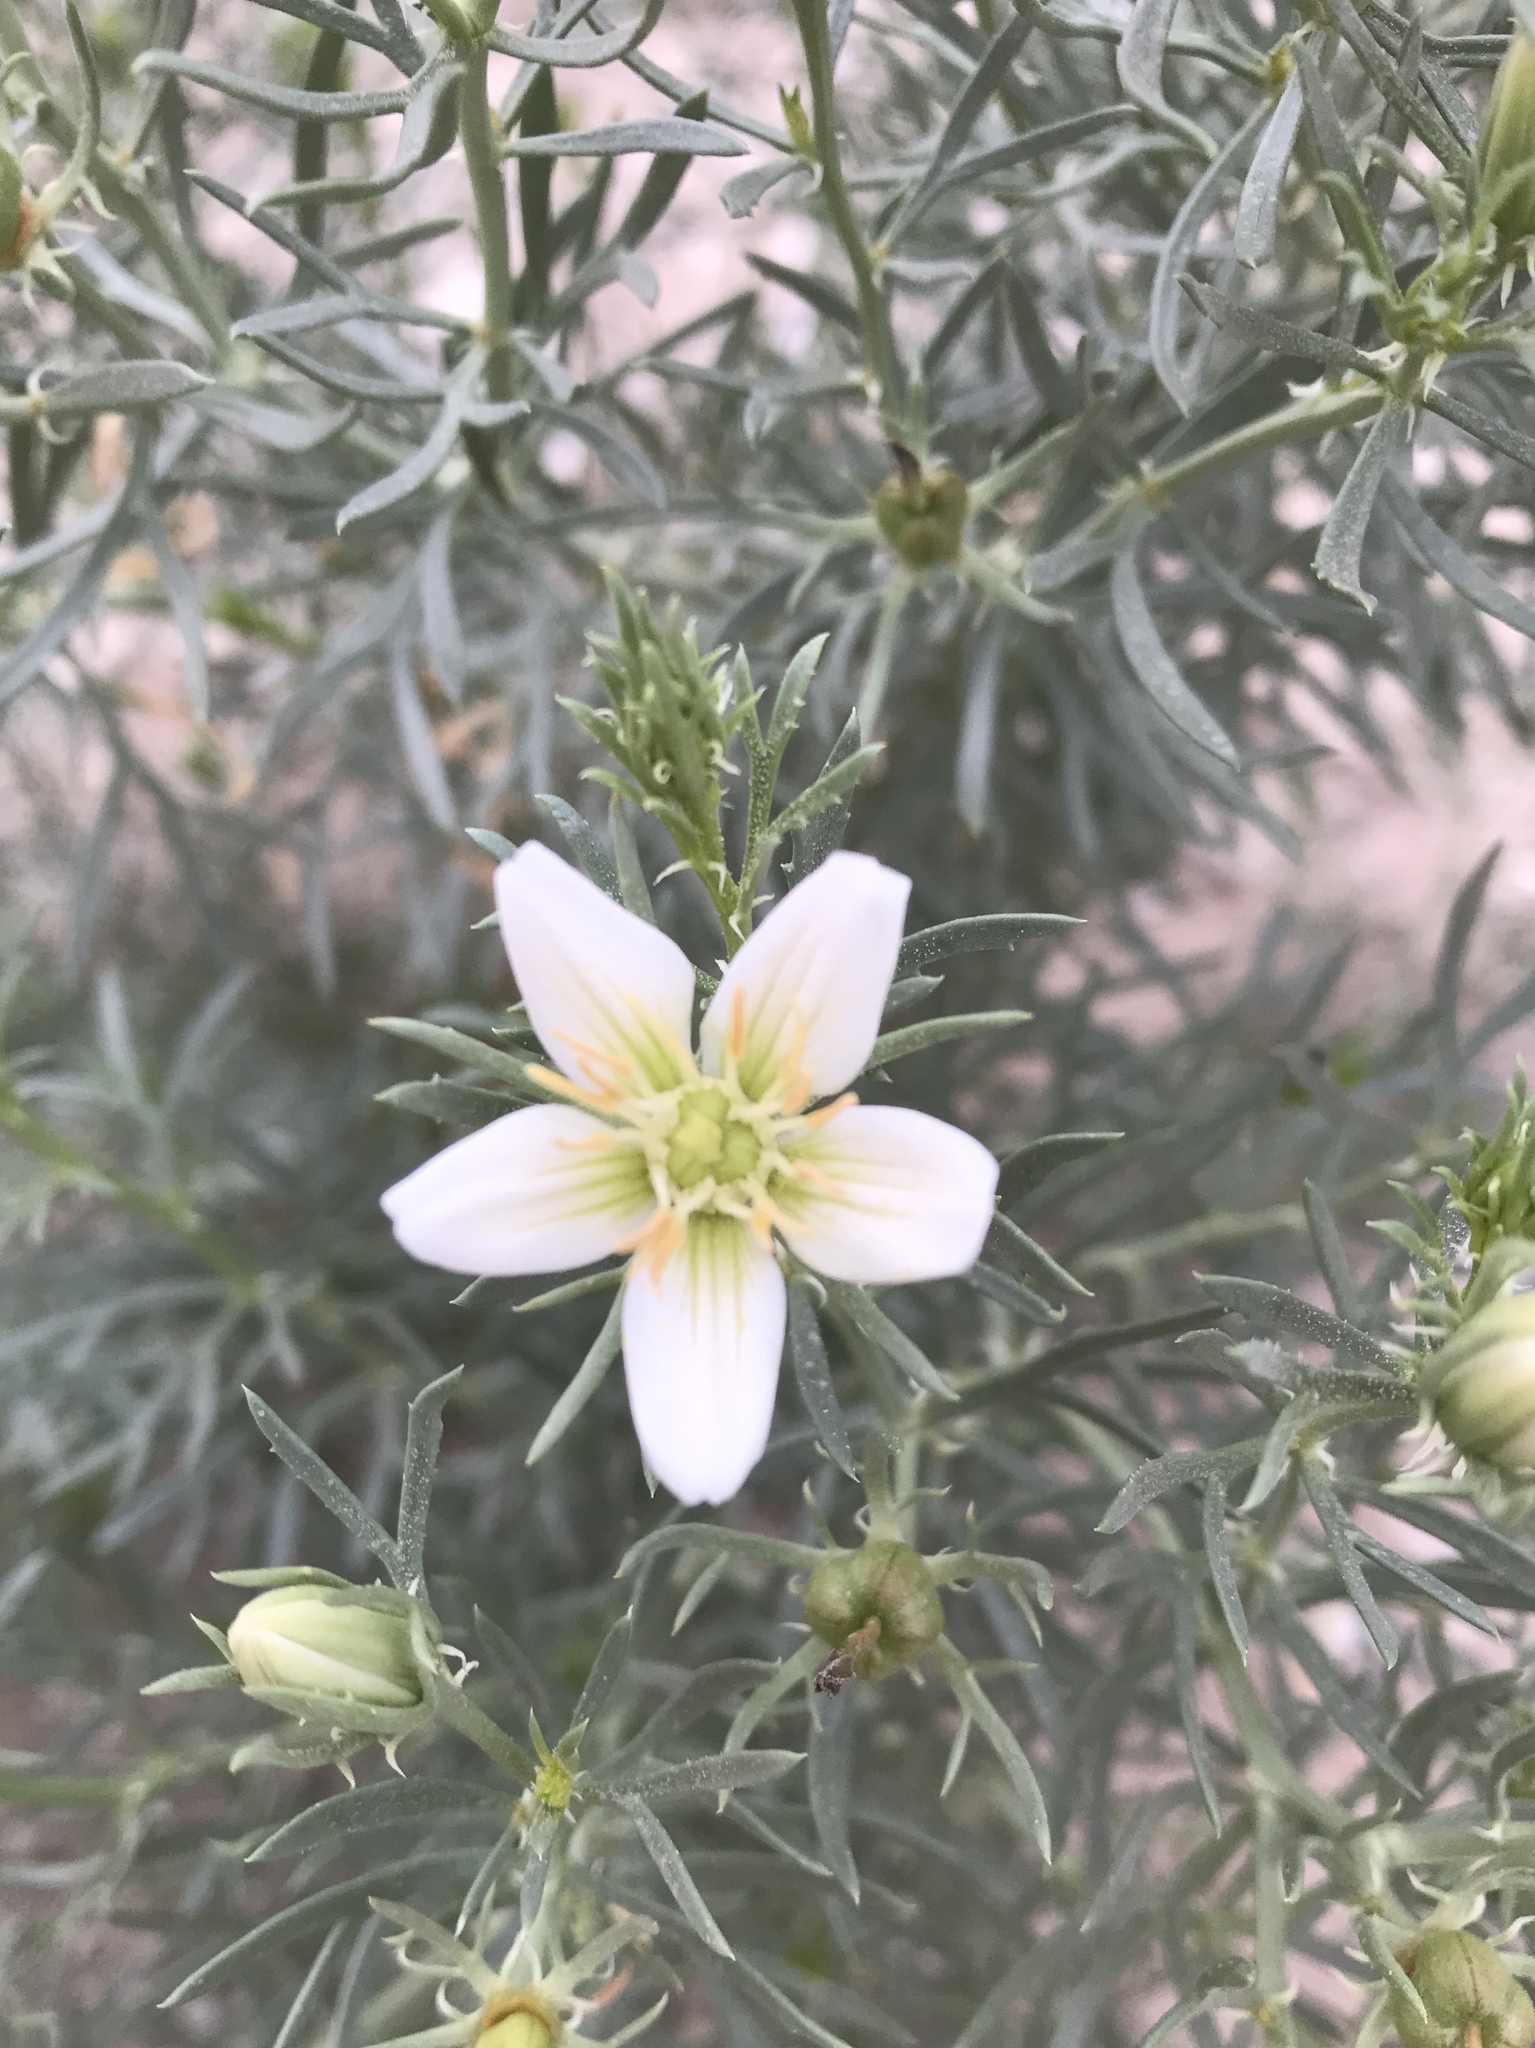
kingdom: Plantae
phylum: Tracheophyta
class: Magnoliopsida
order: Sapindales
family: Tetradiclidaceae
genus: Peganum
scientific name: Peganum harmala
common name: Harmal peganum
